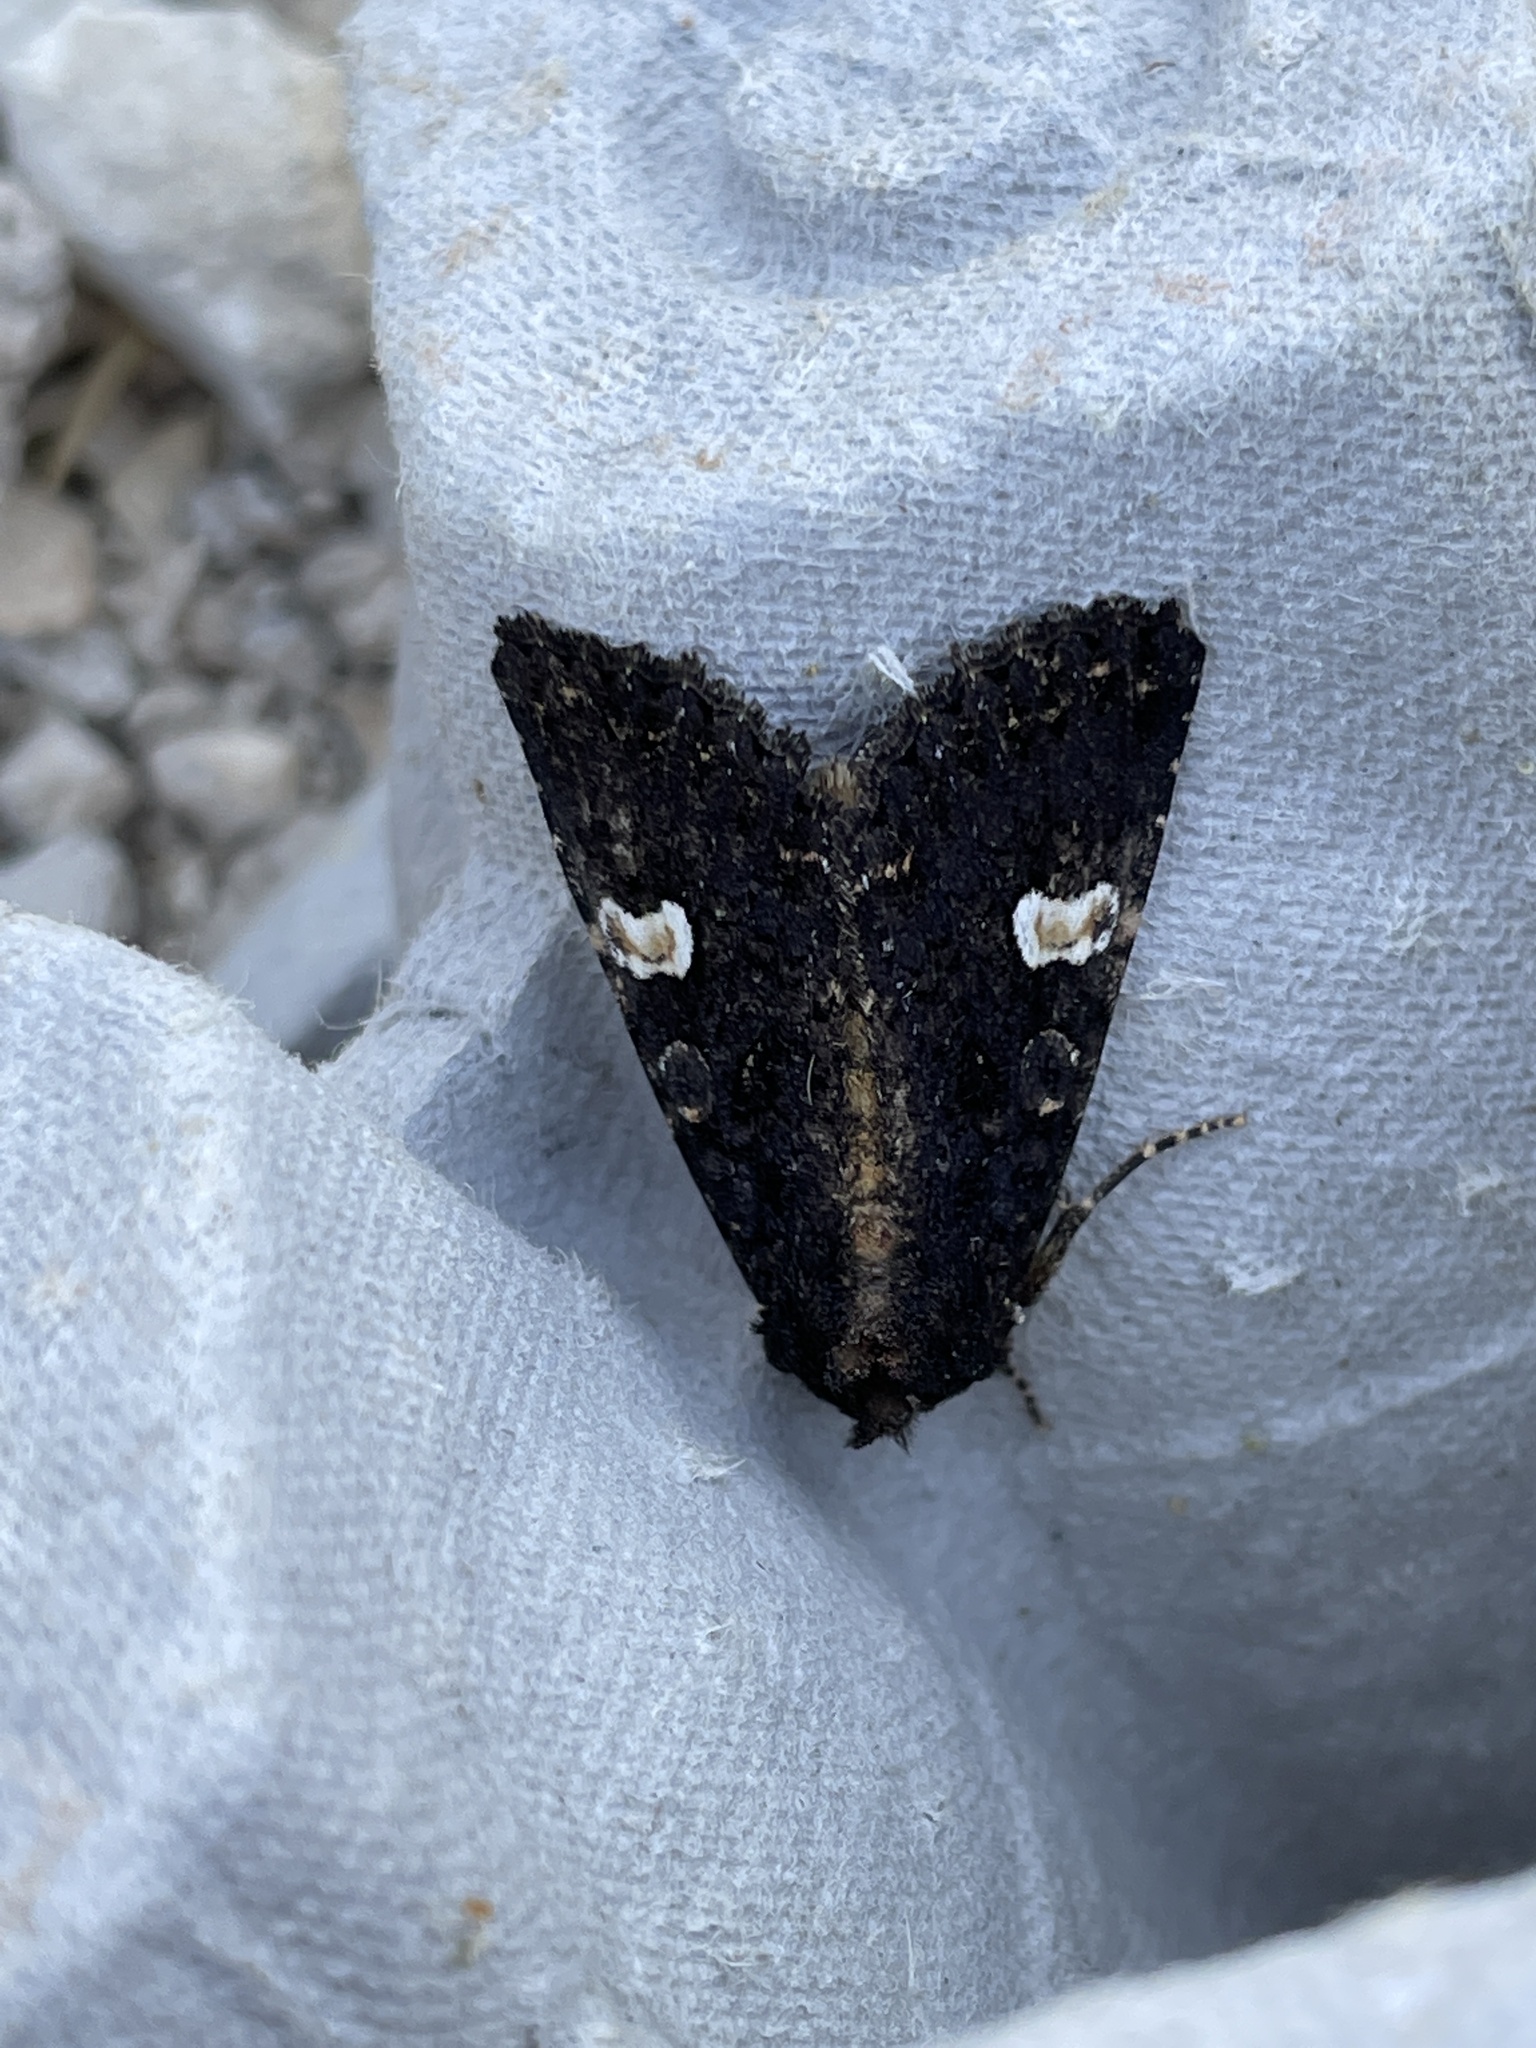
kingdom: Animalia
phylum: Arthropoda
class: Insecta
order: Lepidoptera
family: Noctuidae
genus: Melanchra
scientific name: Melanchra persicariae
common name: Dot moth
